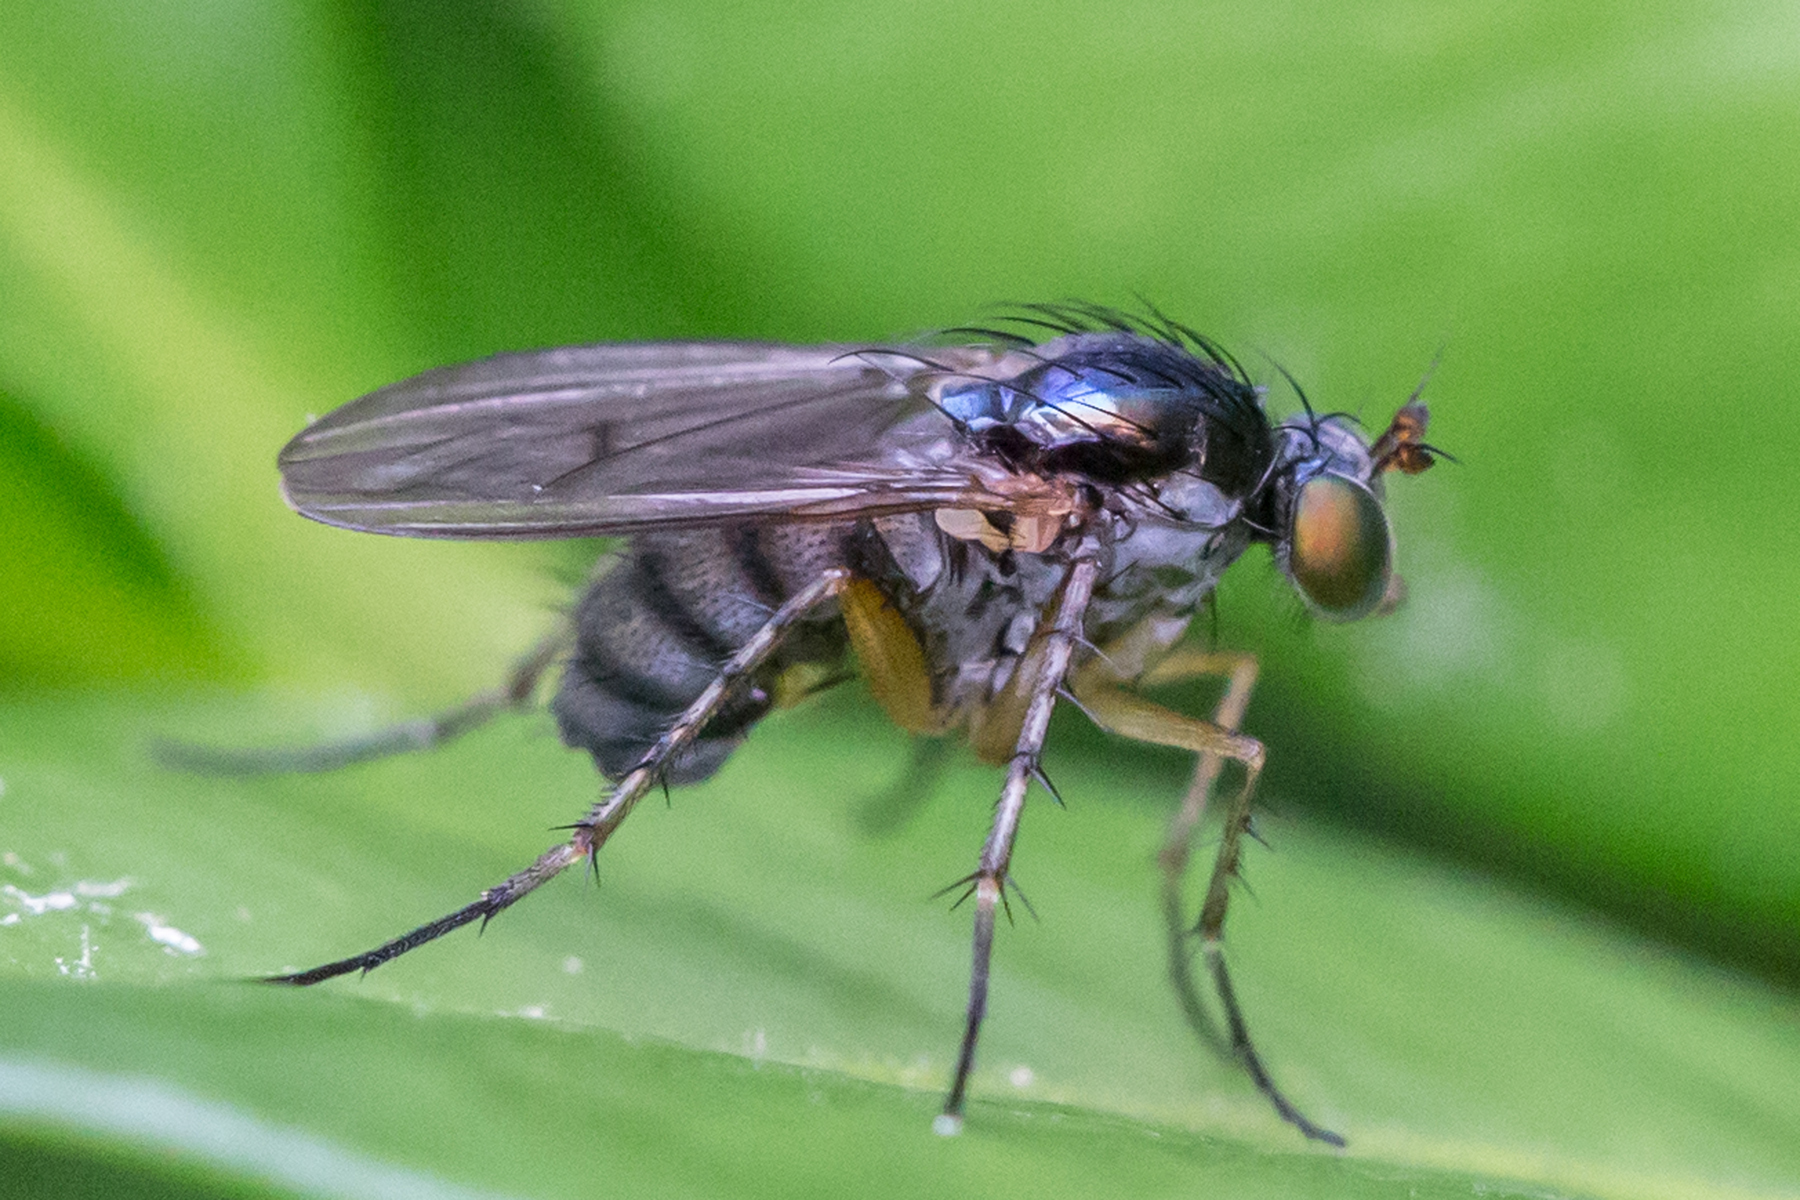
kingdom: Animalia
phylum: Arthropoda
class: Insecta
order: Diptera
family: Dolichopodidae
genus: Ethiromyia
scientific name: Ethiromyia
